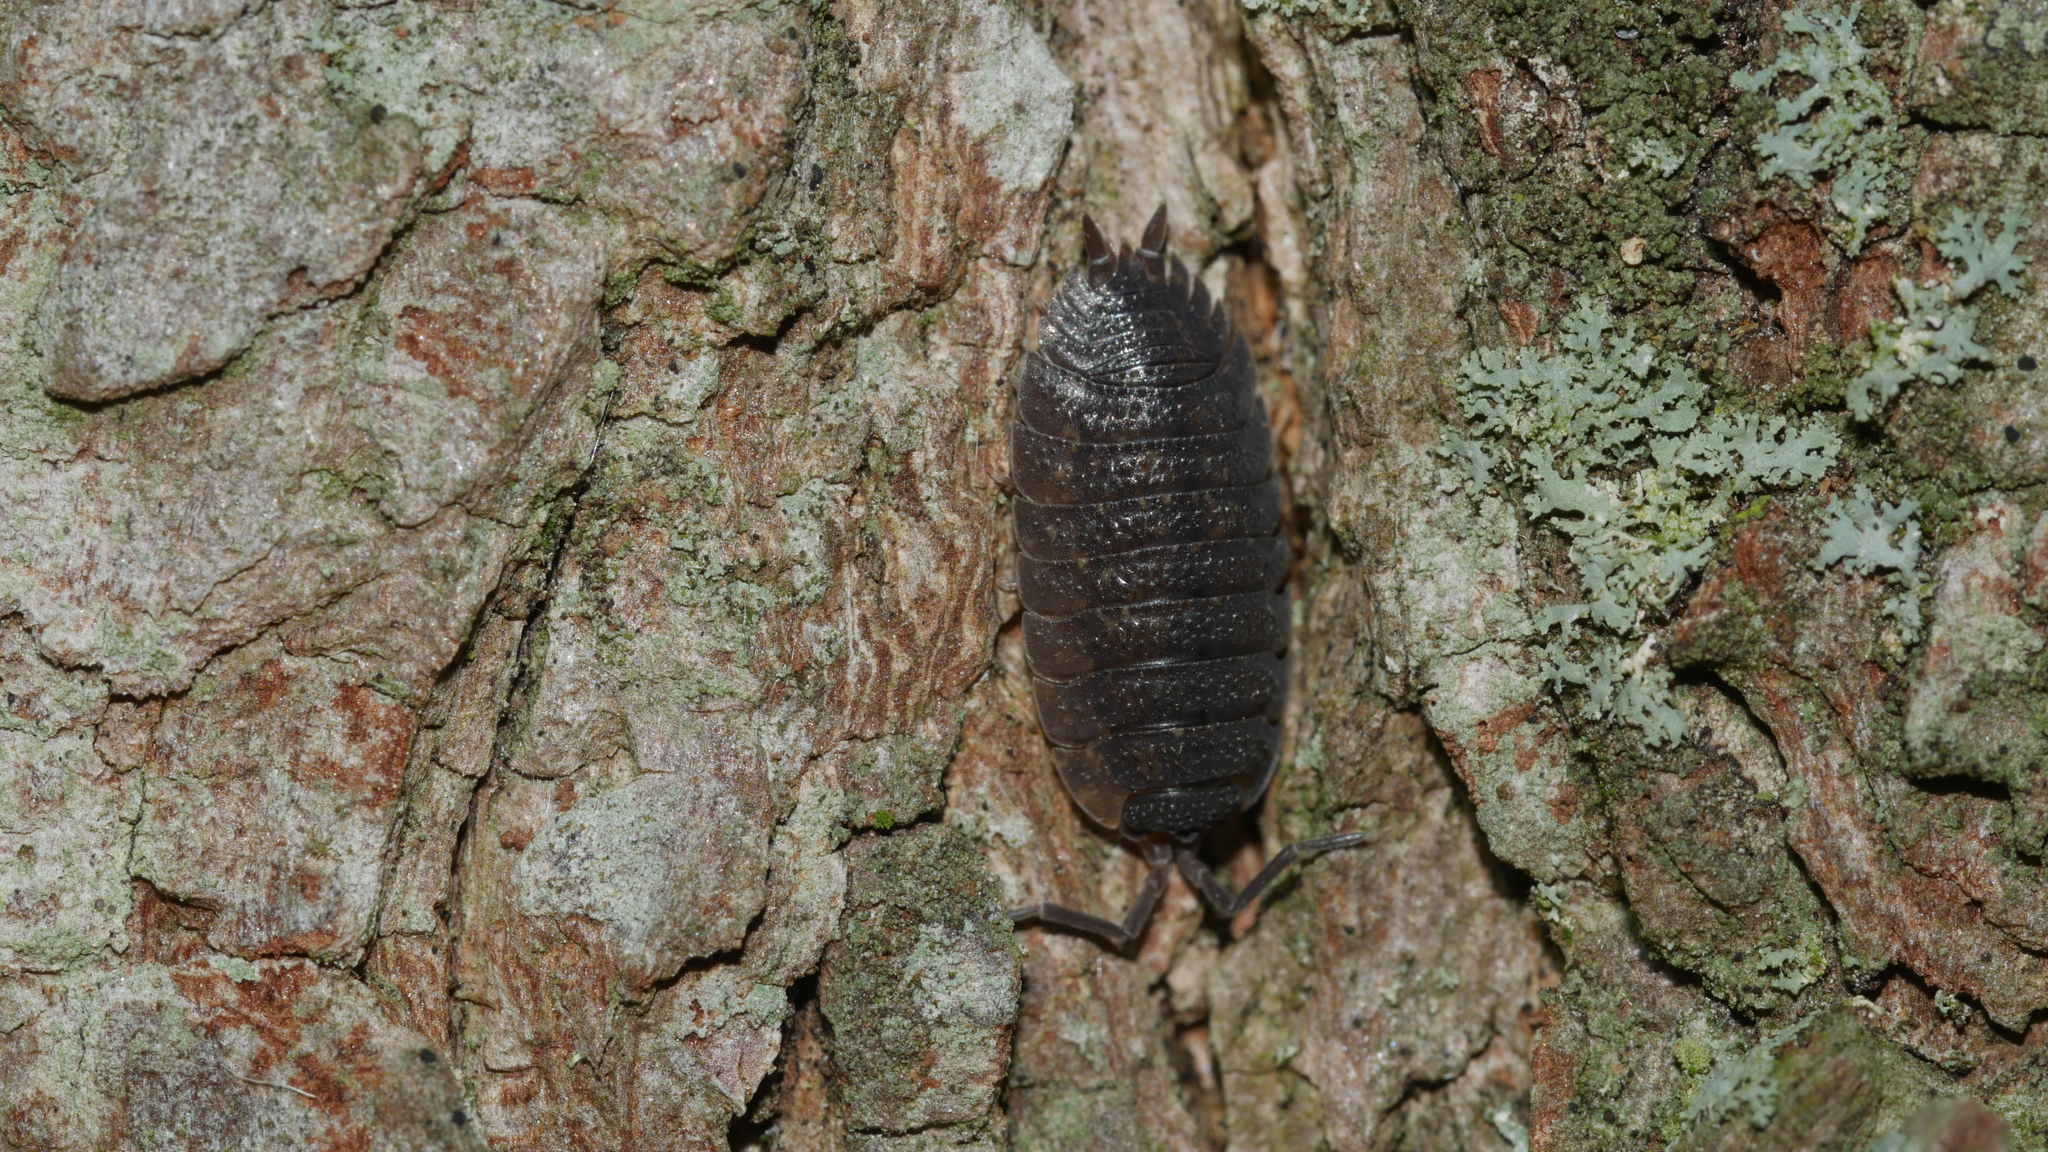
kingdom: Animalia
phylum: Arthropoda
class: Malacostraca
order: Isopoda
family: Porcellionidae
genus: Porcellio
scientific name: Porcellio scaber
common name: Common rough woodlouse
